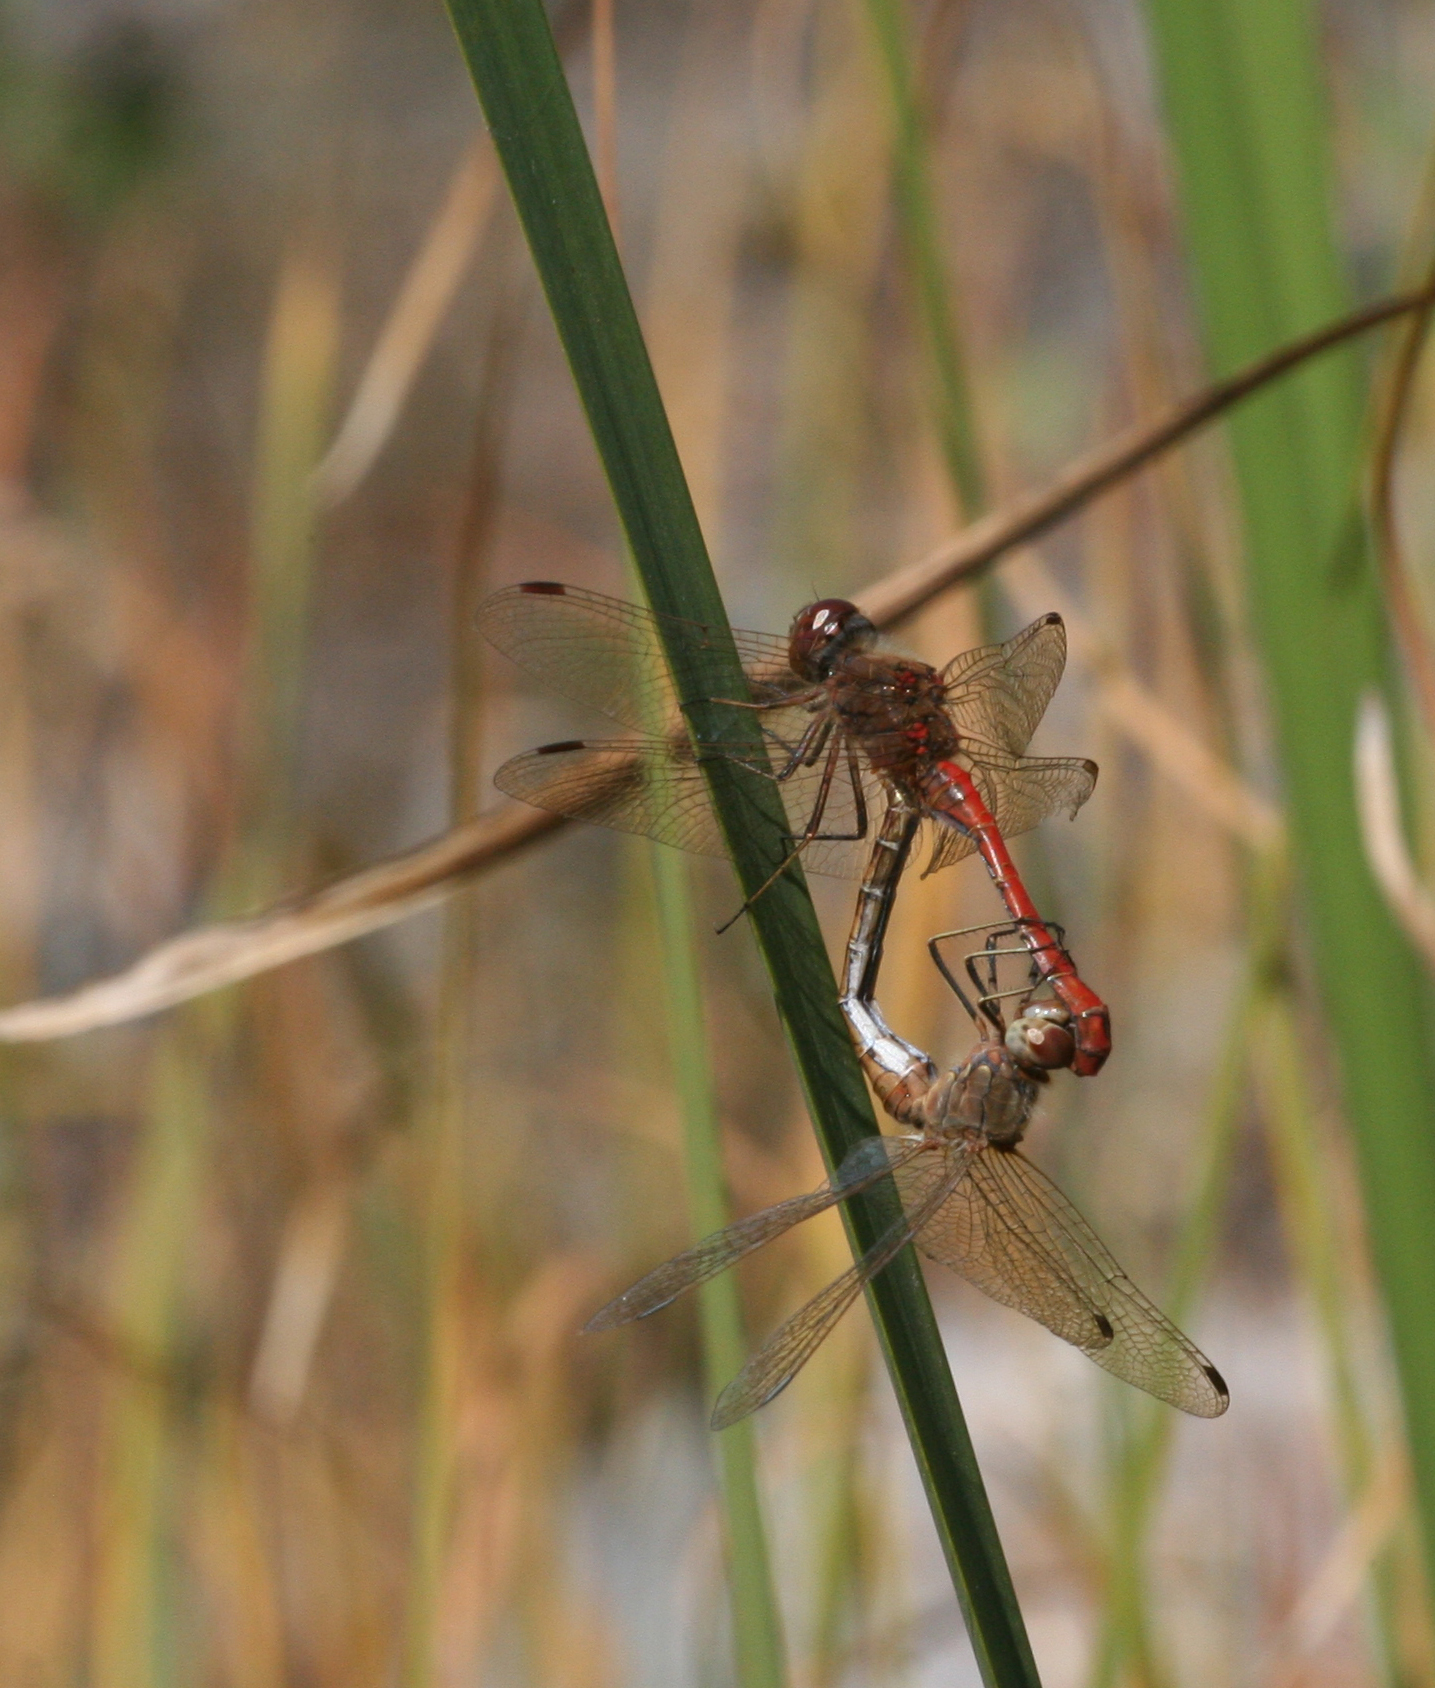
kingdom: Animalia
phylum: Arthropoda
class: Insecta
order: Odonata
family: Libellulidae
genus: Sympetrum
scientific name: Sympetrum vulgatum
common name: Vagrant darter
